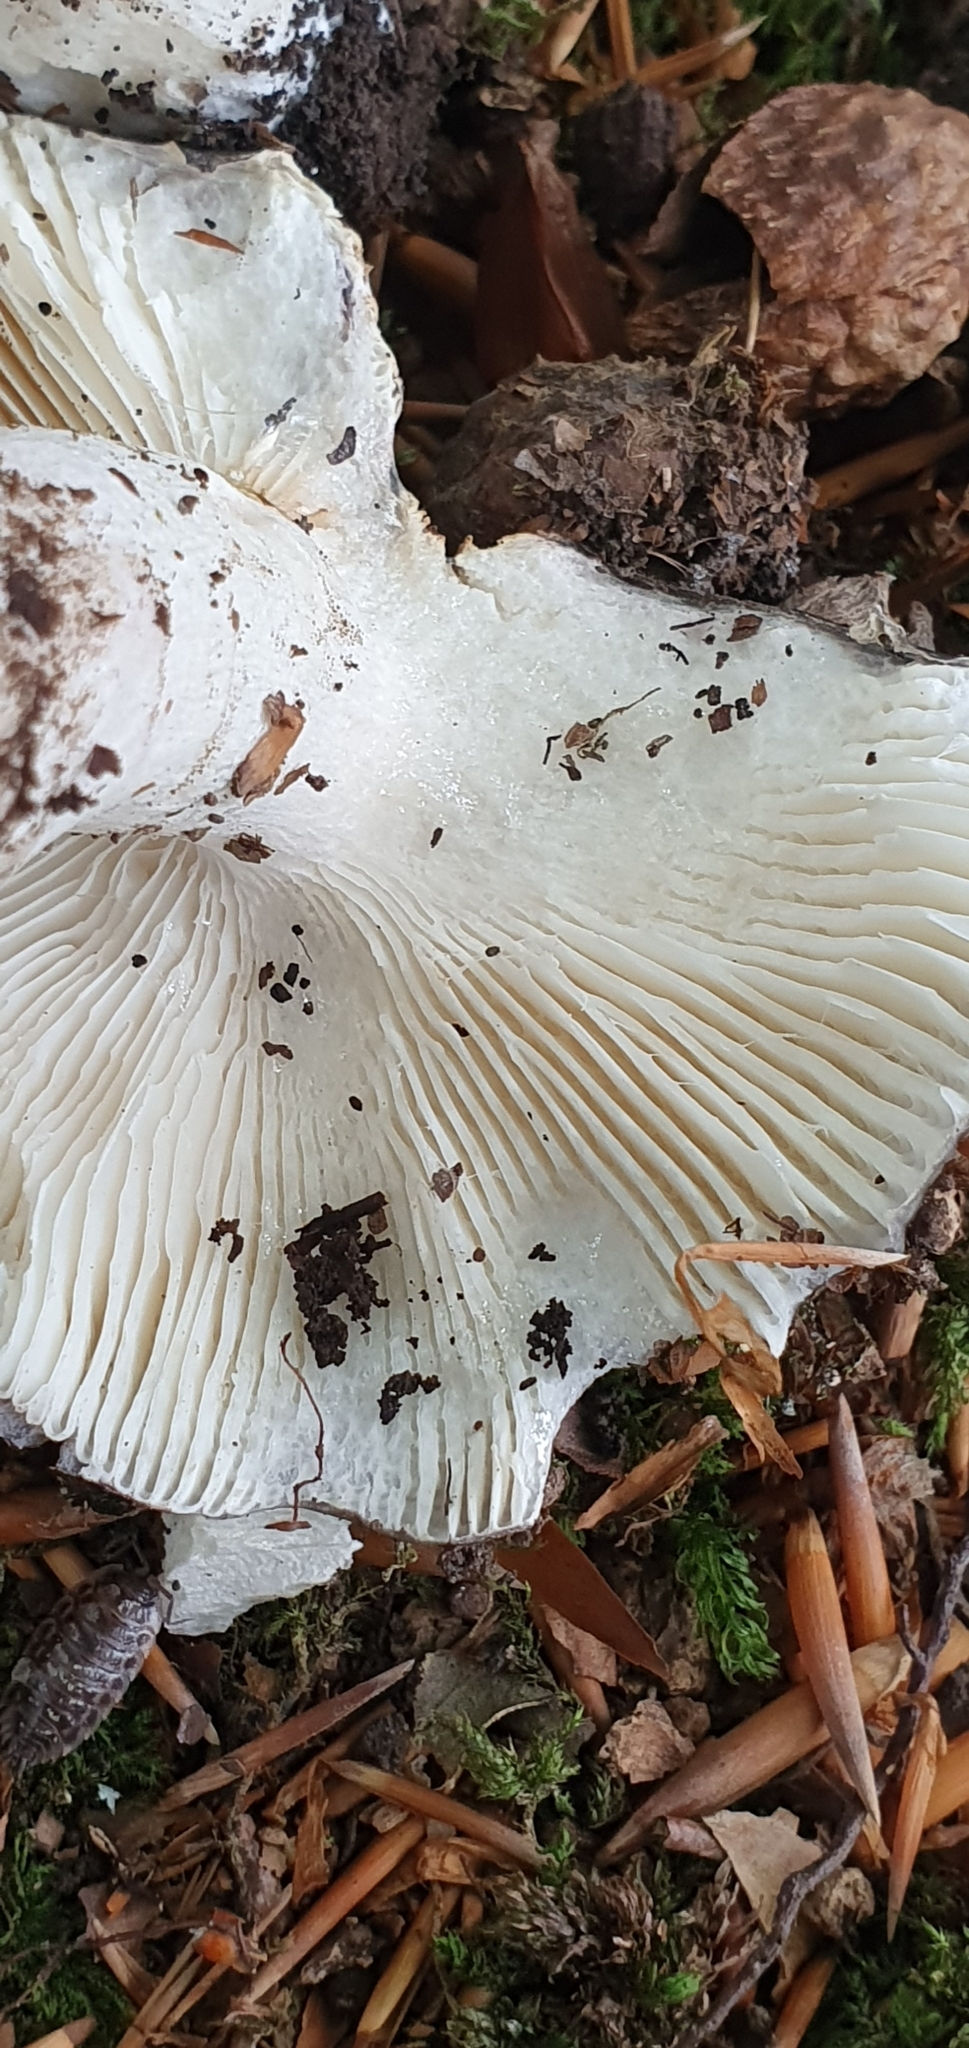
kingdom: Fungi
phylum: Basidiomycota
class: Agaricomycetes
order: Russulales
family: Russulaceae
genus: Russula
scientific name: Russula cyanoxantha
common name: Charcoal burner
